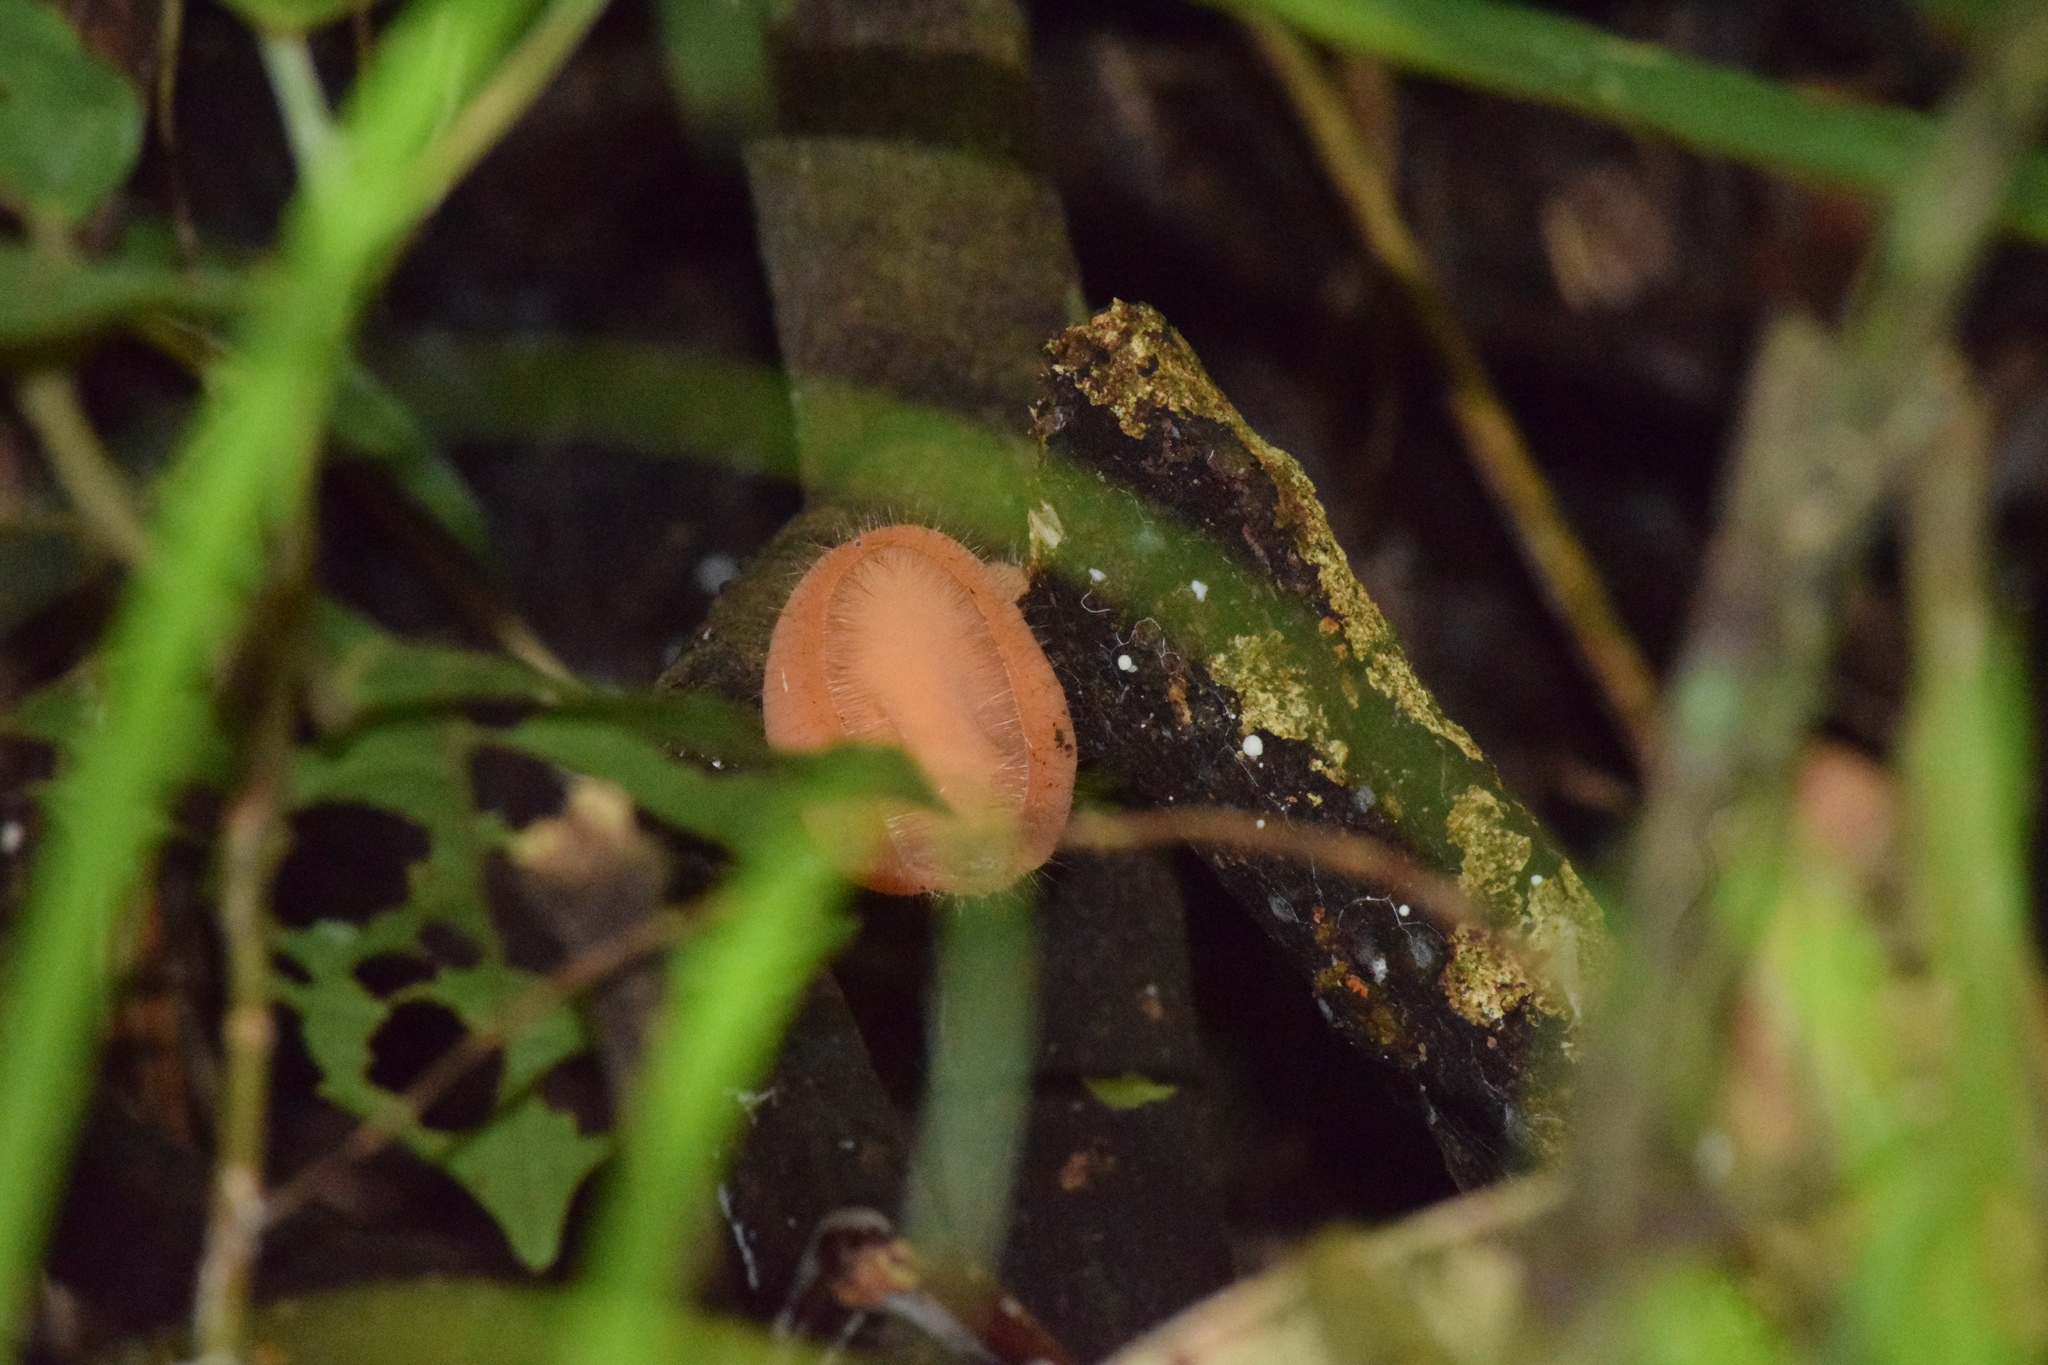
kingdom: Fungi
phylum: Ascomycota
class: Pezizomycetes
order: Pezizales
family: Sarcoscyphaceae
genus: Cookeina
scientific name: Cookeina tricholoma
